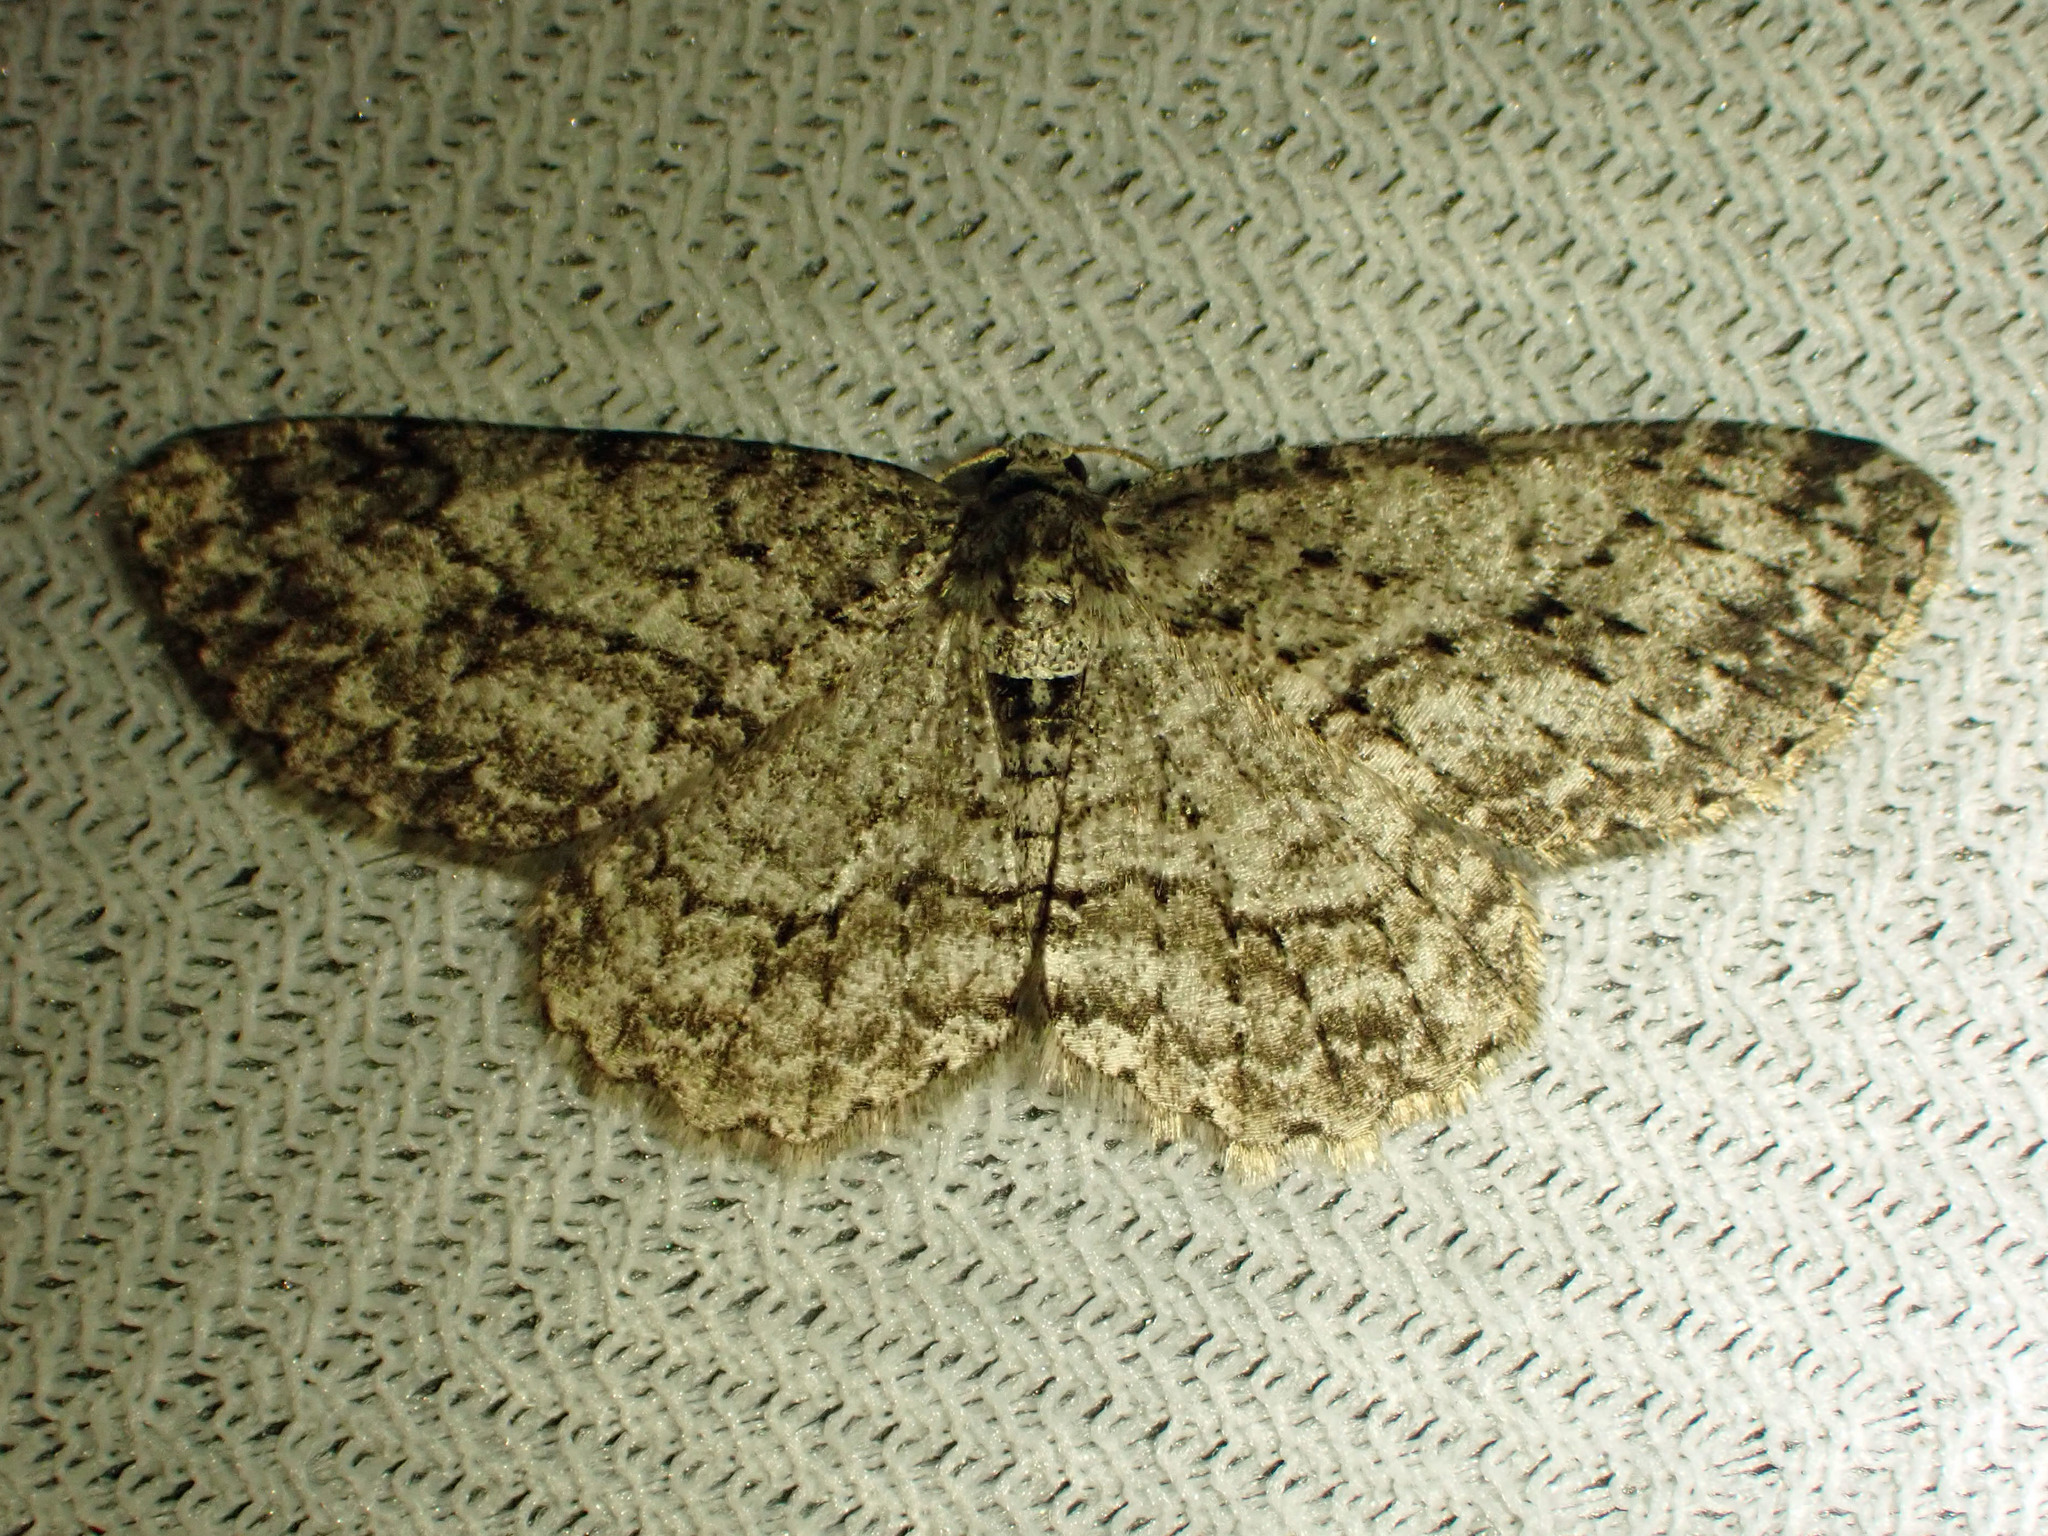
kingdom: Animalia
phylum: Arthropoda
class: Insecta
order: Lepidoptera
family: Geometridae
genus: Ectropis
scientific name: Ectropis crepuscularia
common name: Engrailed
